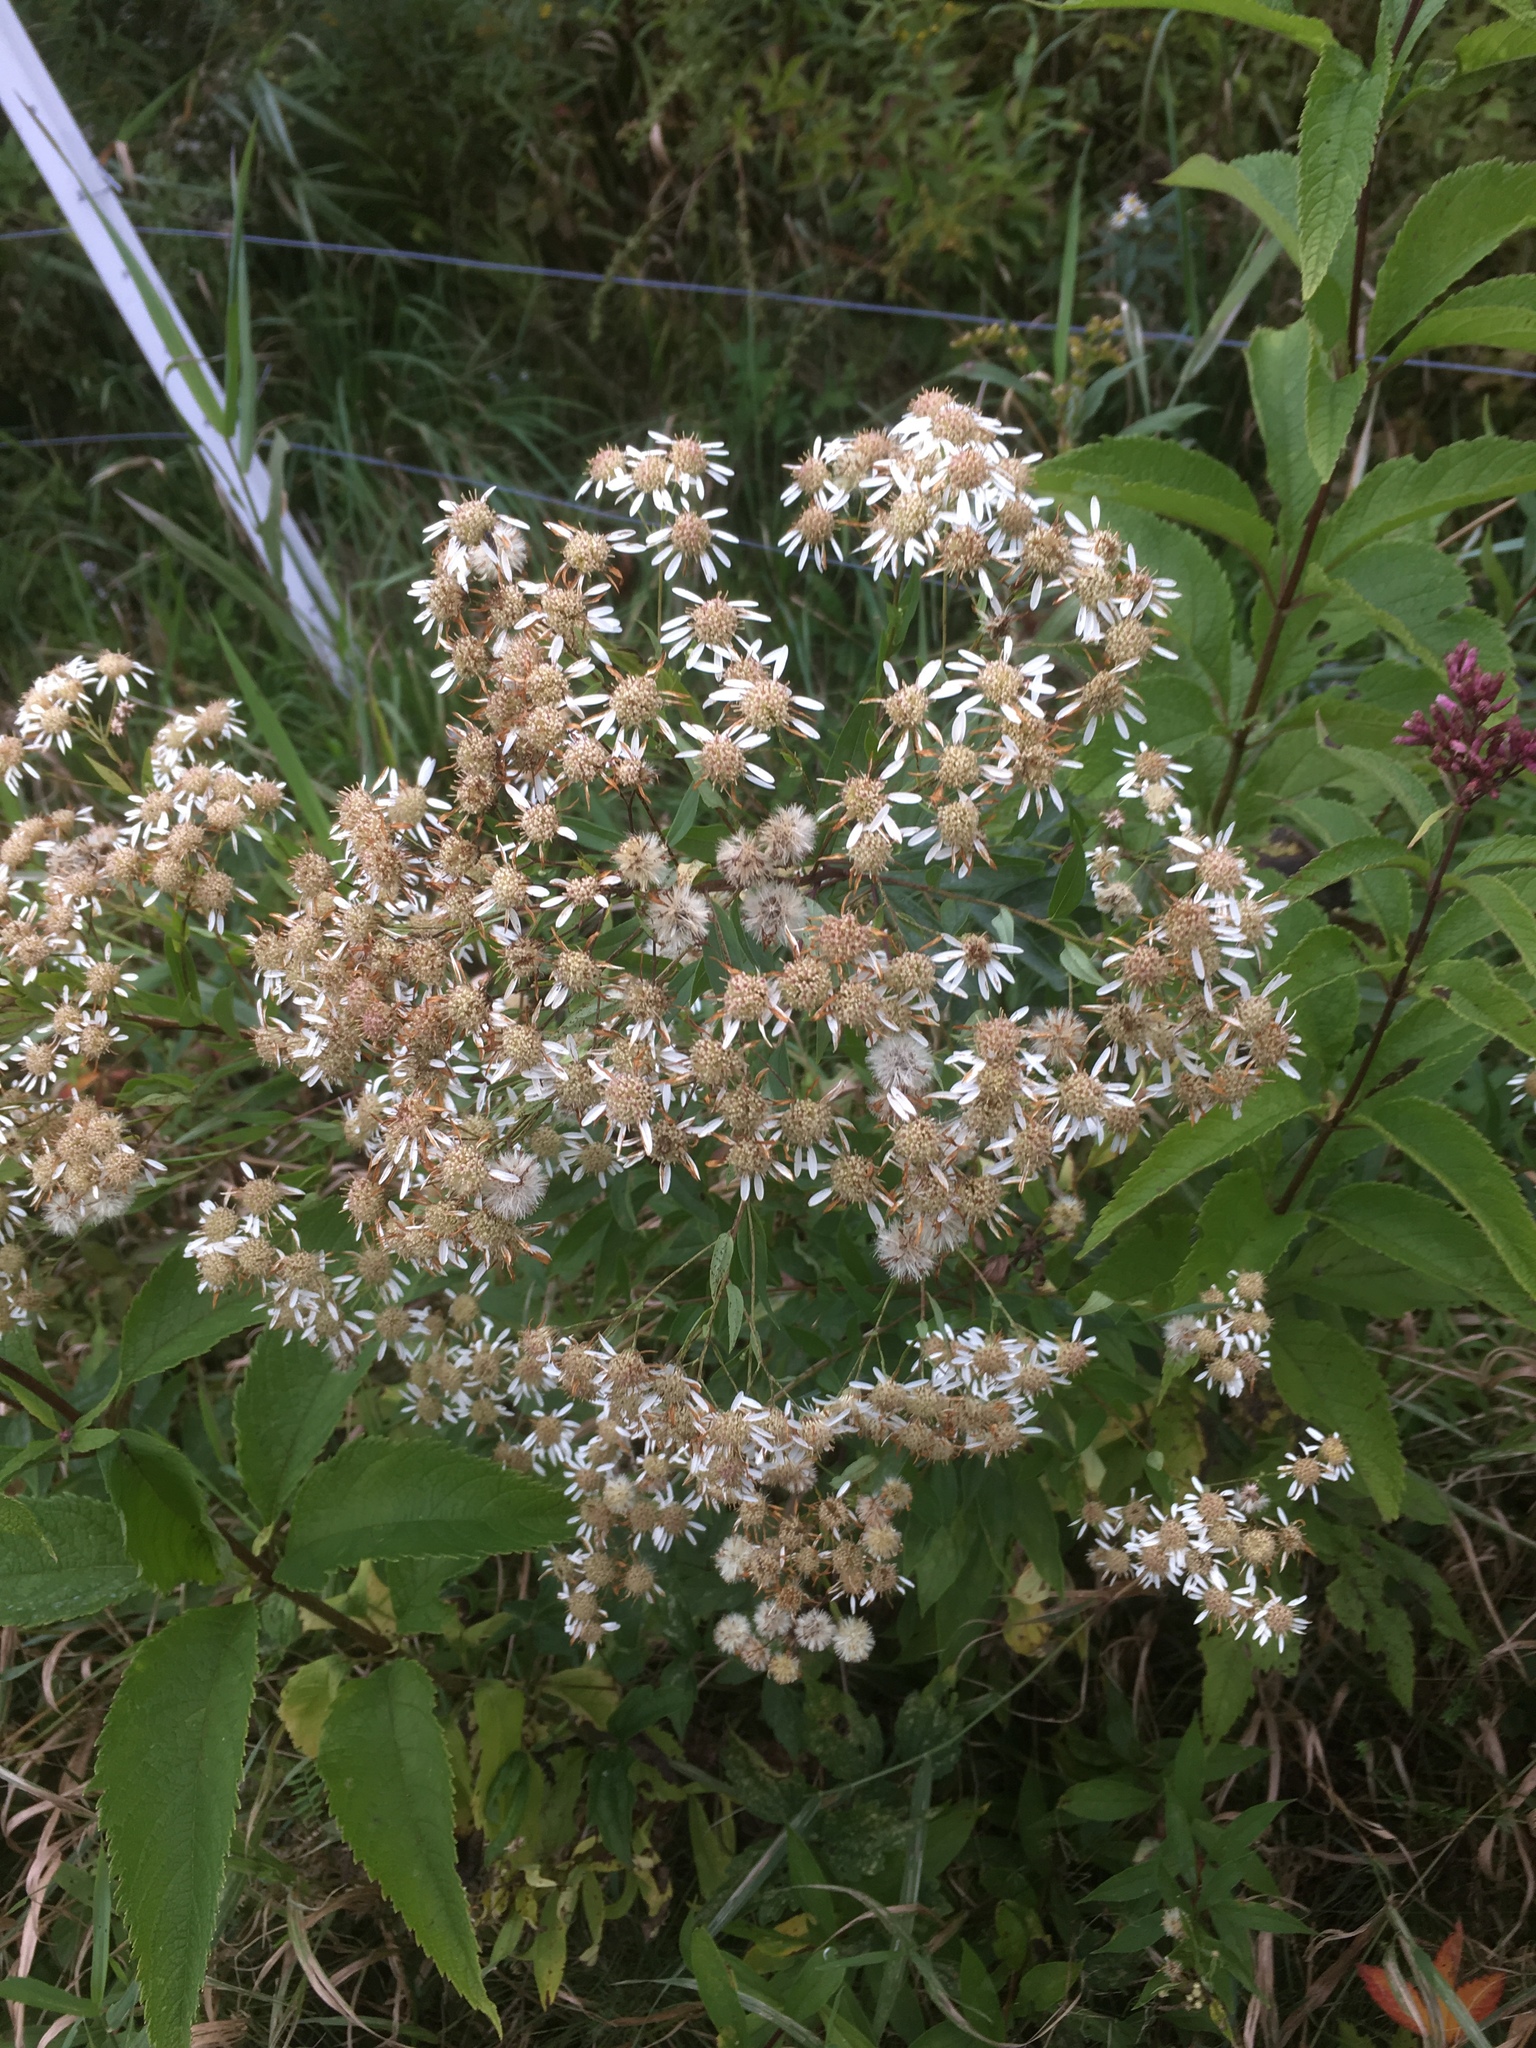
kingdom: Plantae
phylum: Tracheophyta
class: Magnoliopsida
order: Asterales
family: Asteraceae
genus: Doellingeria
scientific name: Doellingeria umbellata
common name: Flat-top white aster
